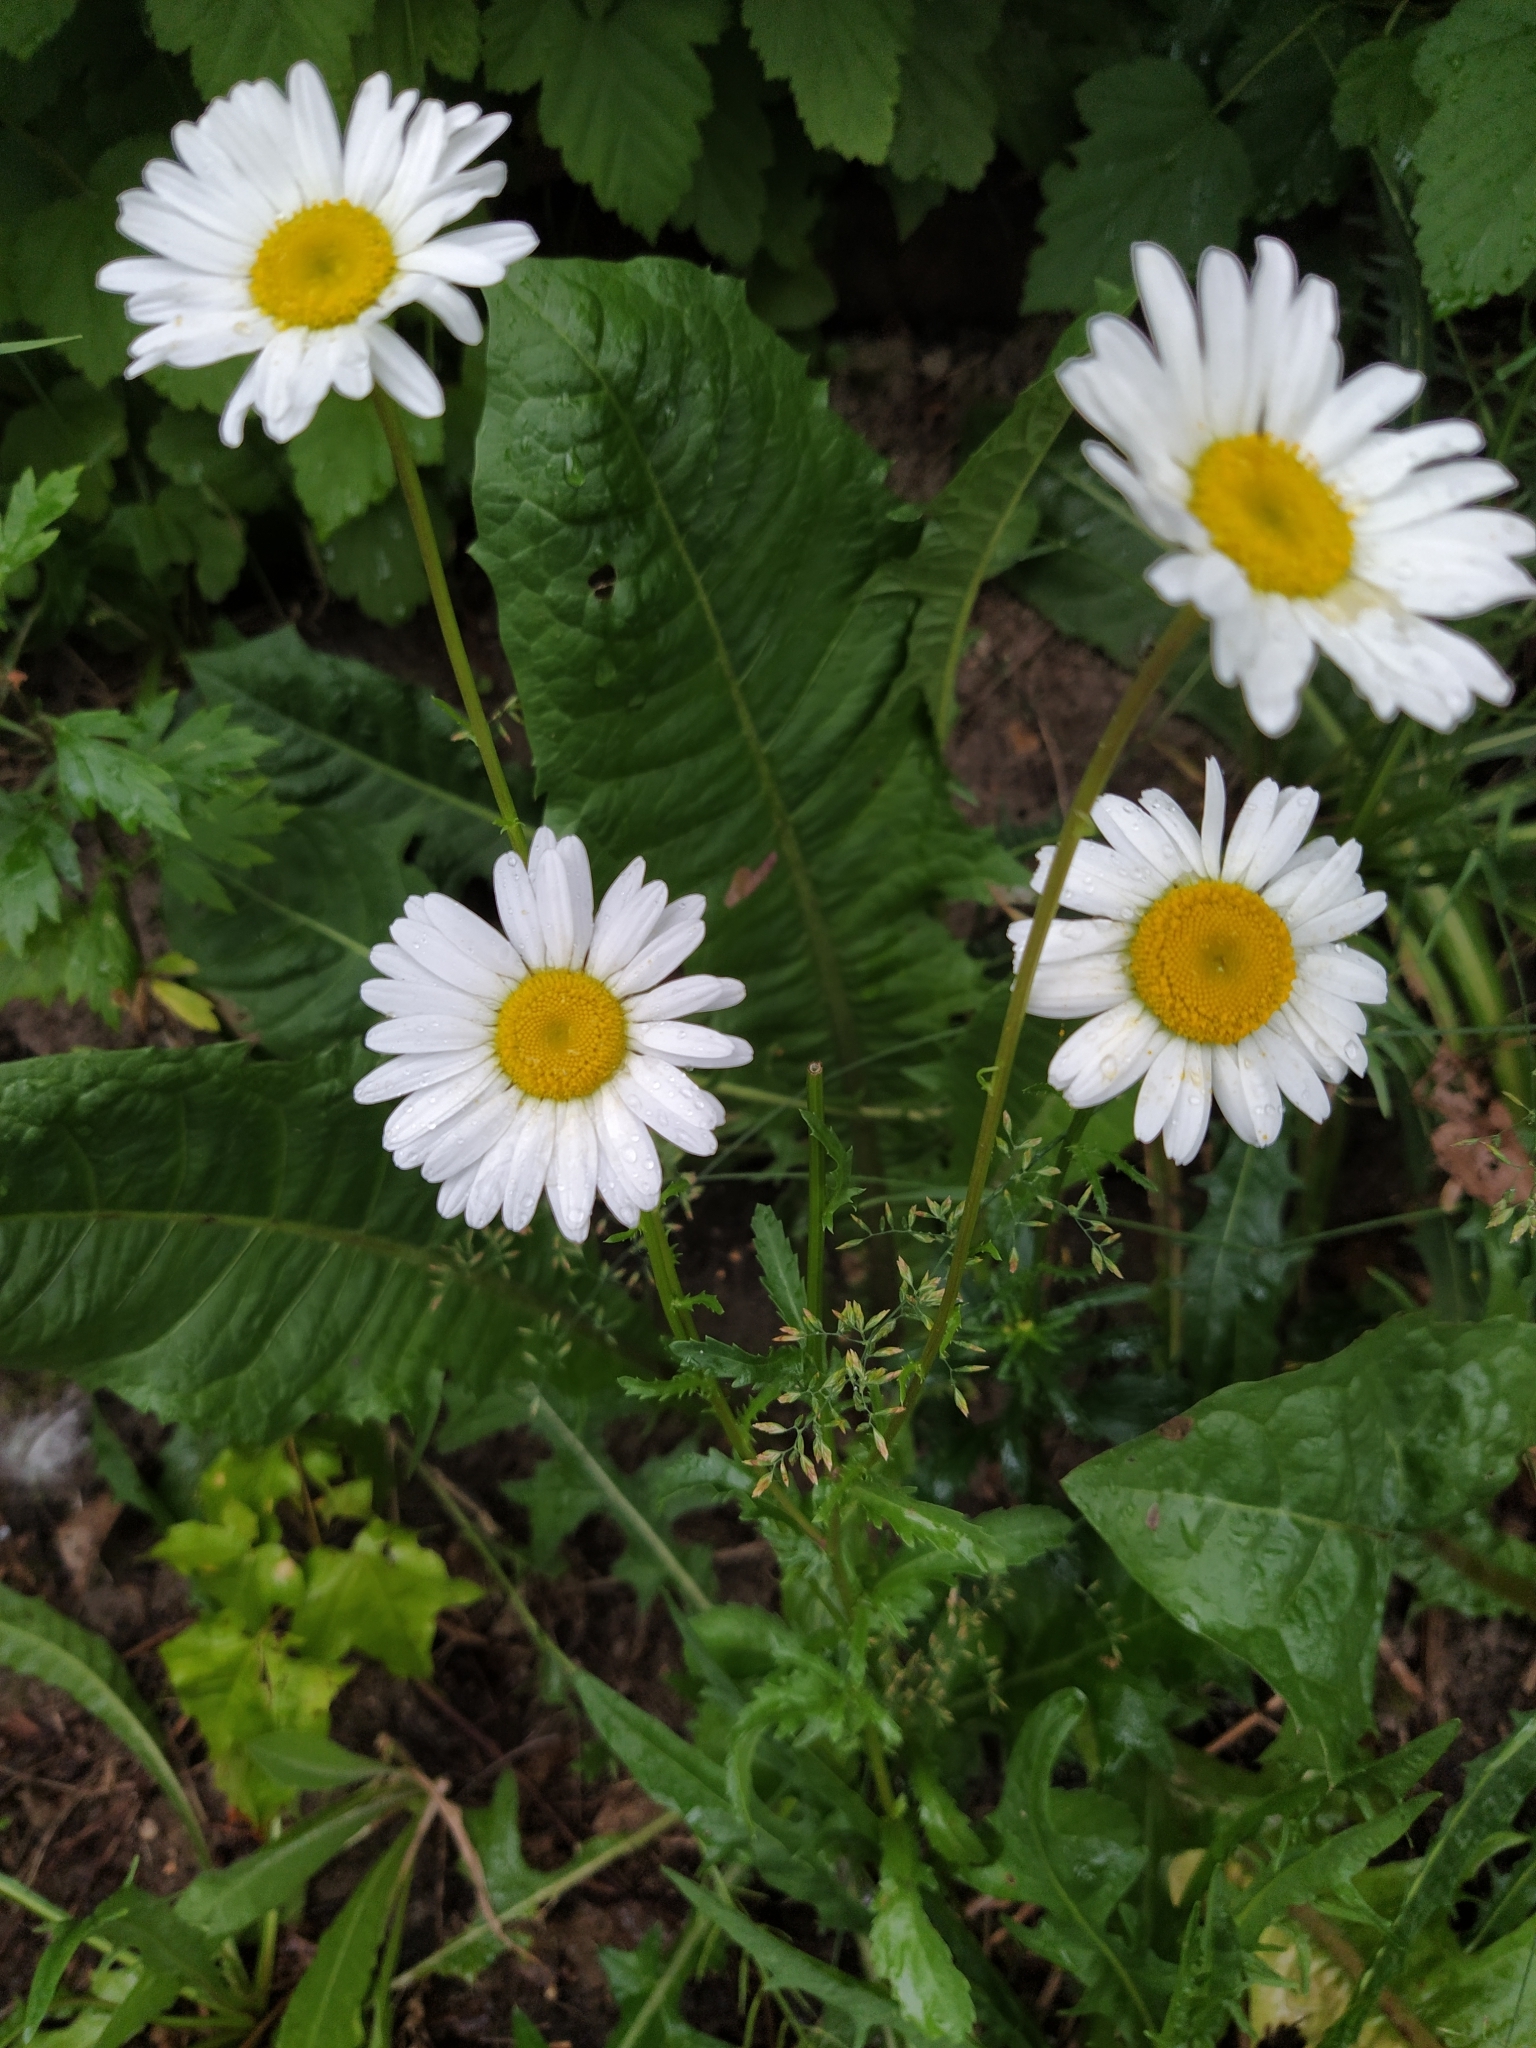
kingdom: Plantae
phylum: Tracheophyta
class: Magnoliopsida
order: Asterales
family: Asteraceae
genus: Leucanthemum
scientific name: Leucanthemum vulgare
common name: Oxeye daisy
